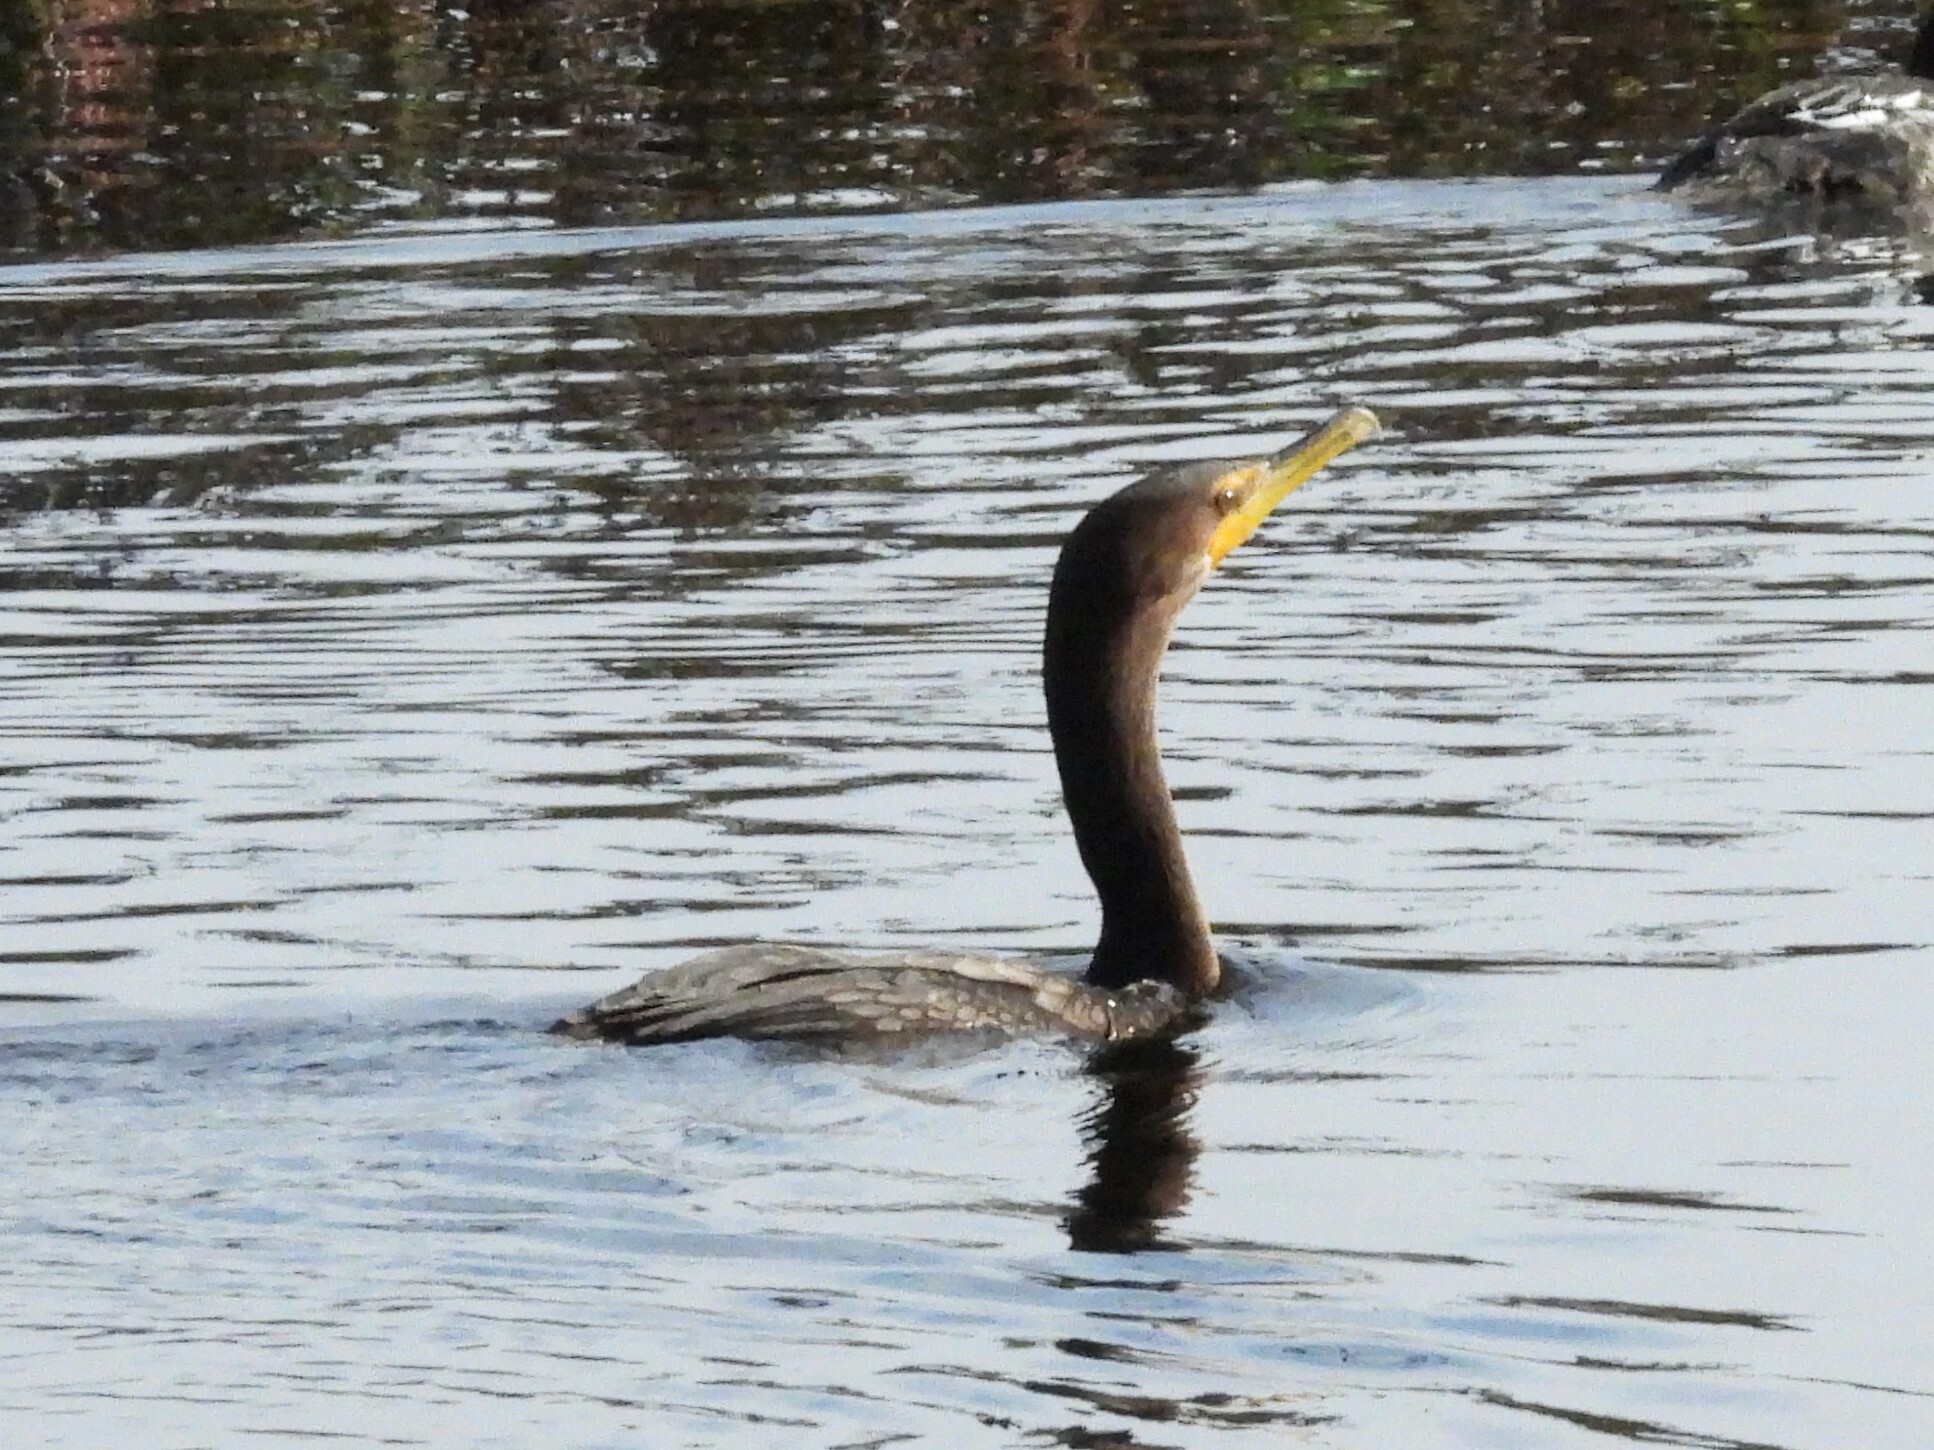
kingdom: Animalia
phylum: Chordata
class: Aves
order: Suliformes
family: Phalacrocoracidae
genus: Phalacrocorax
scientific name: Phalacrocorax auritus
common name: Double-crested cormorant
